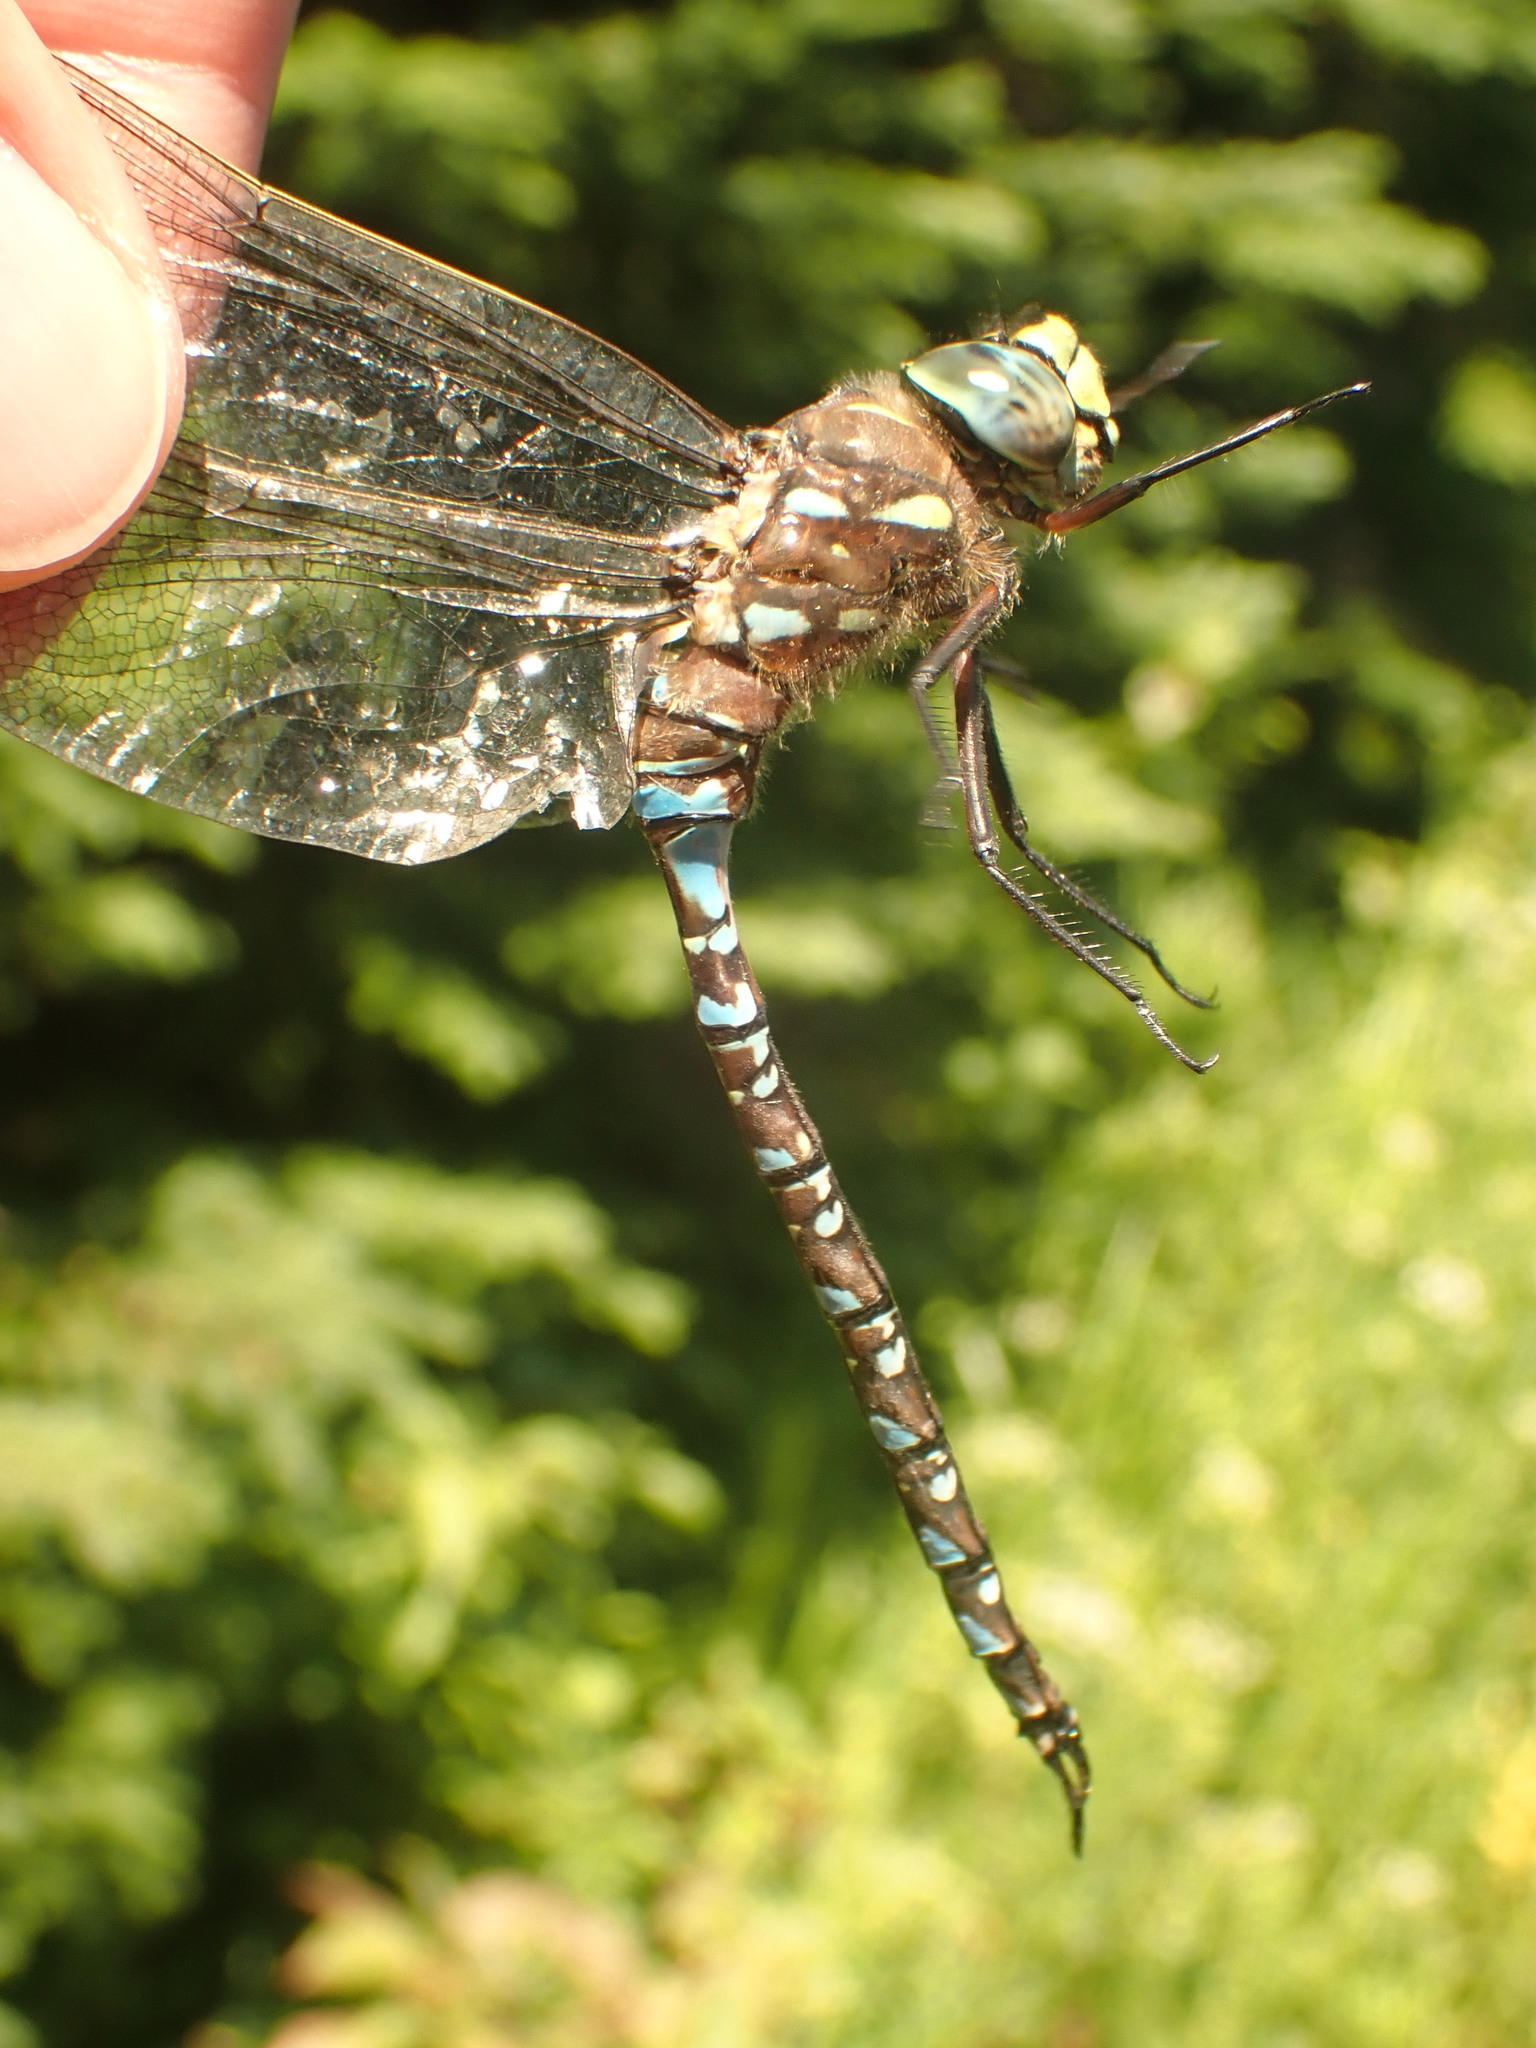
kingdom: Animalia
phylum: Arthropoda
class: Insecta
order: Odonata
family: Aeshnidae
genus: Aeshna
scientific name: Aeshna interrupta
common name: Variable darner
